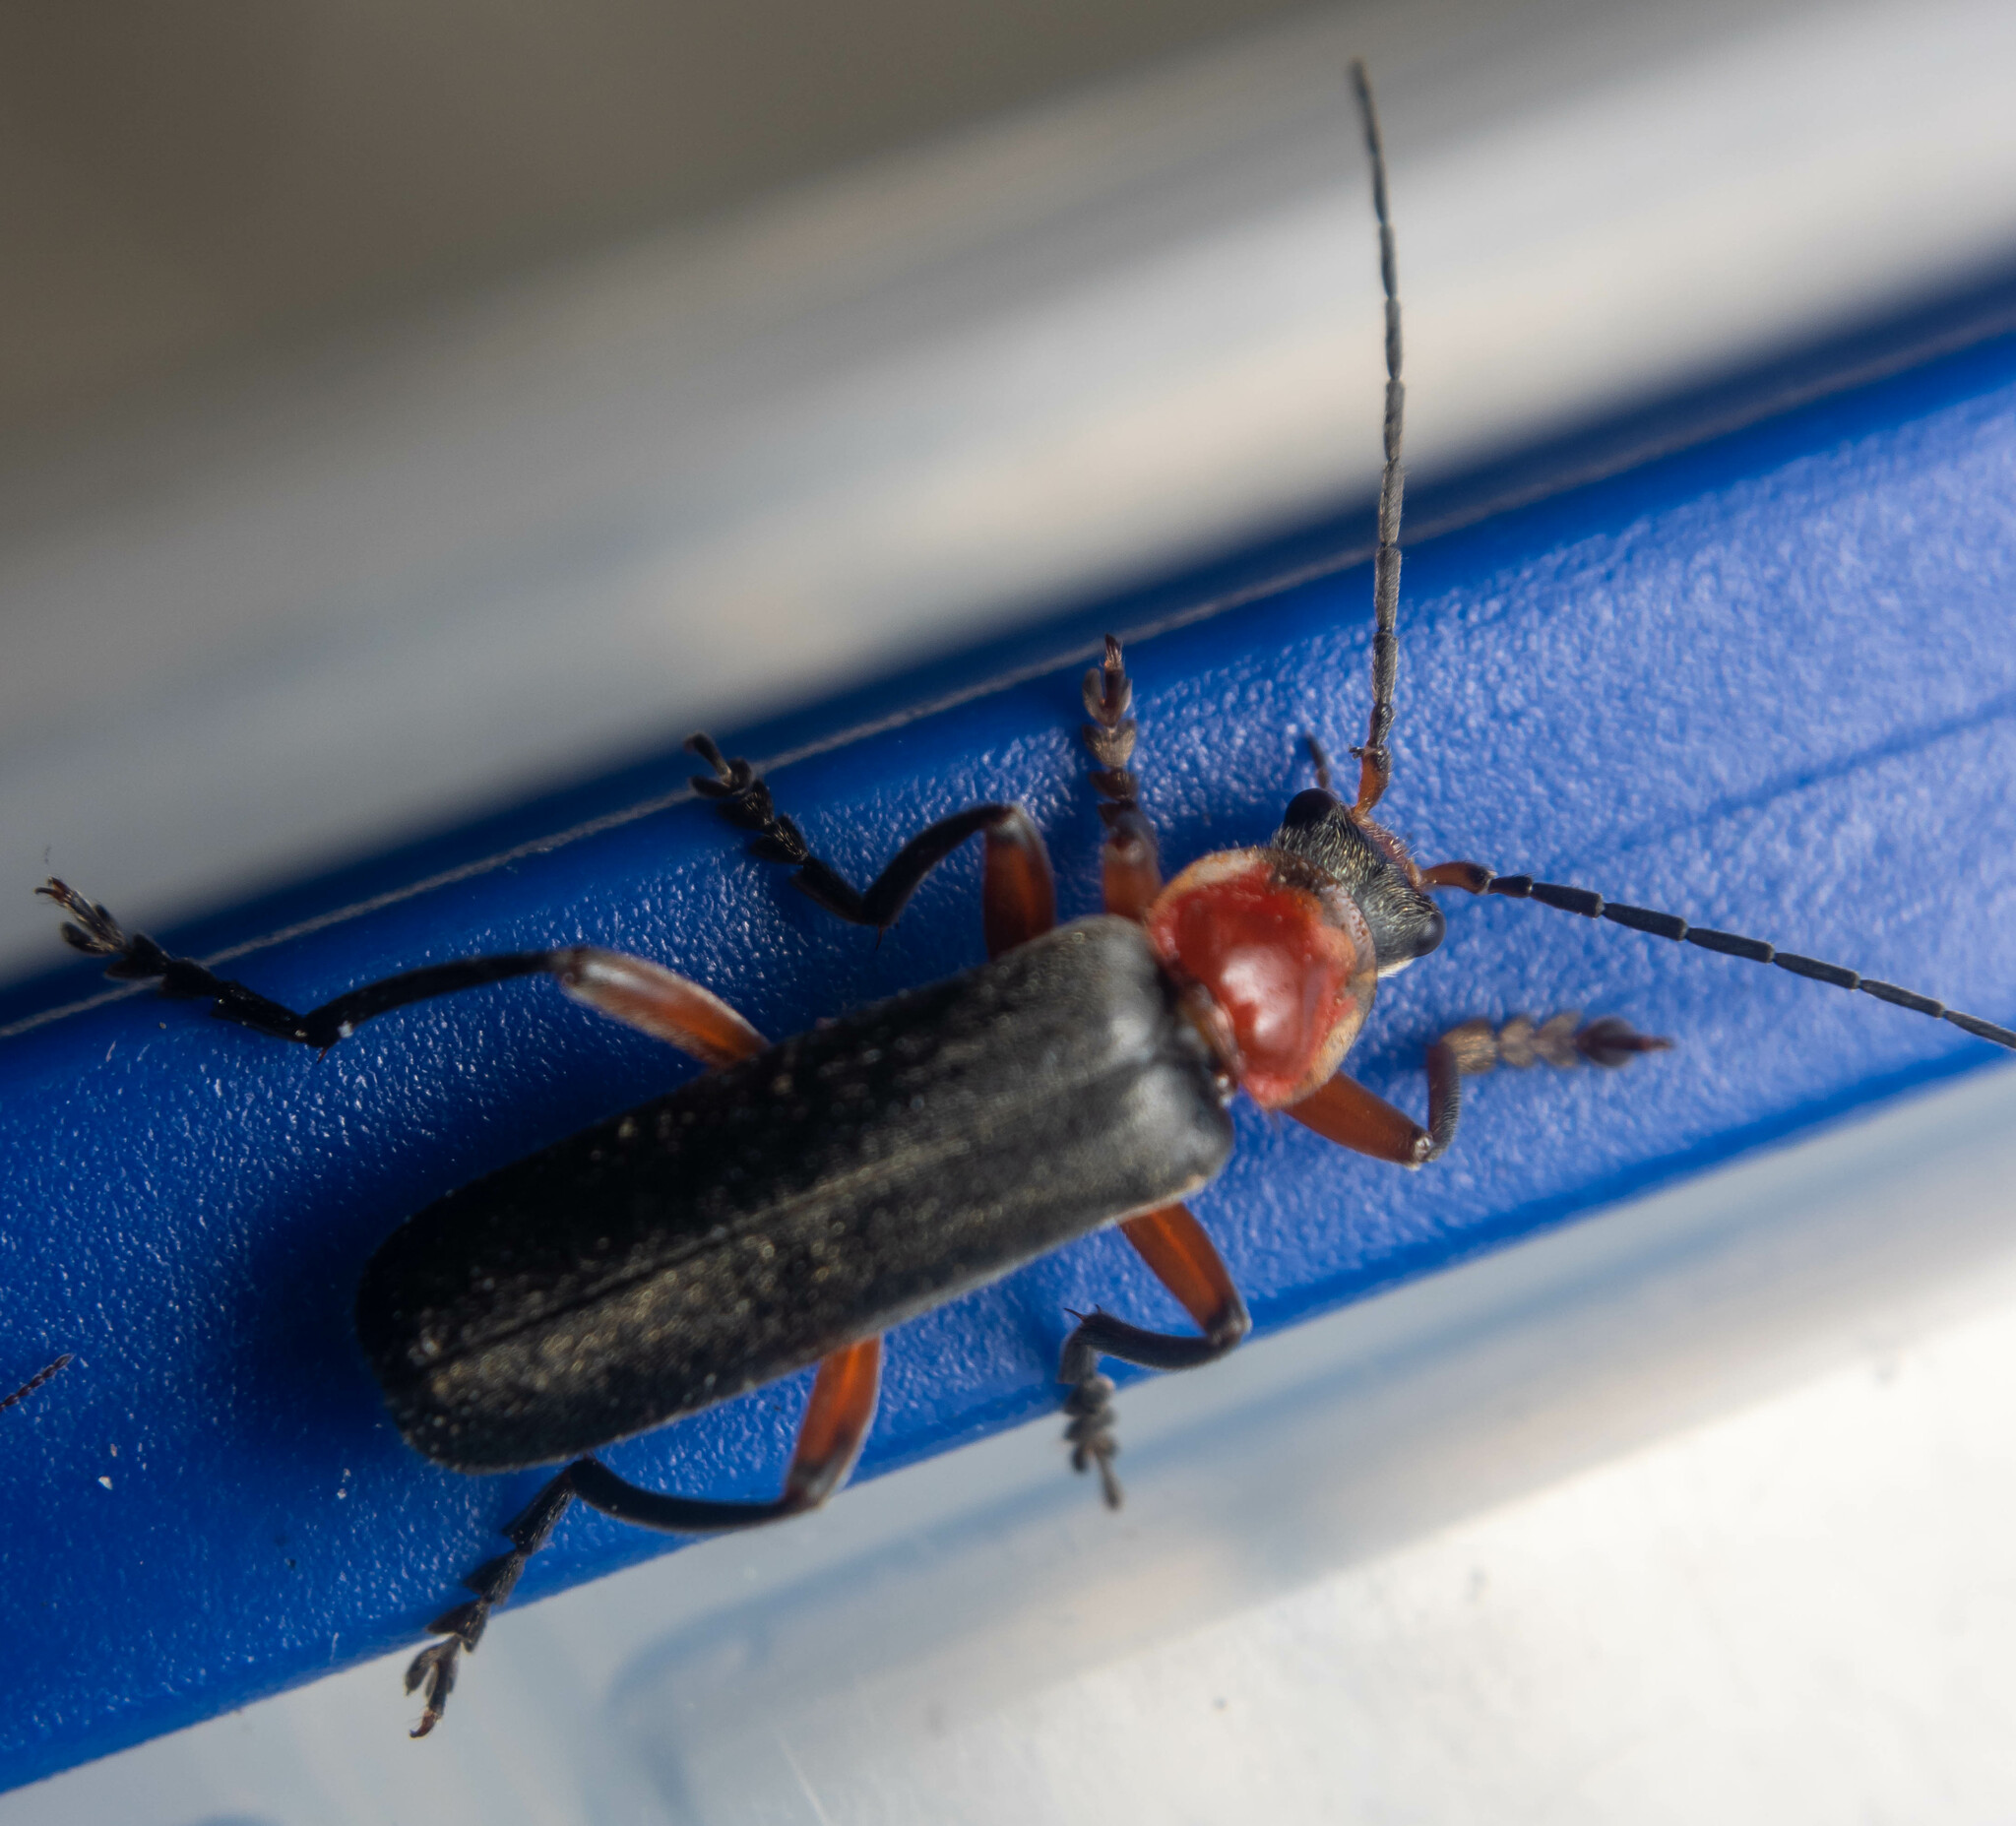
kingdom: Animalia
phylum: Arthropoda
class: Insecta
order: Coleoptera
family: Cantharidae
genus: Cantharis
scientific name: Cantharis pellucida
